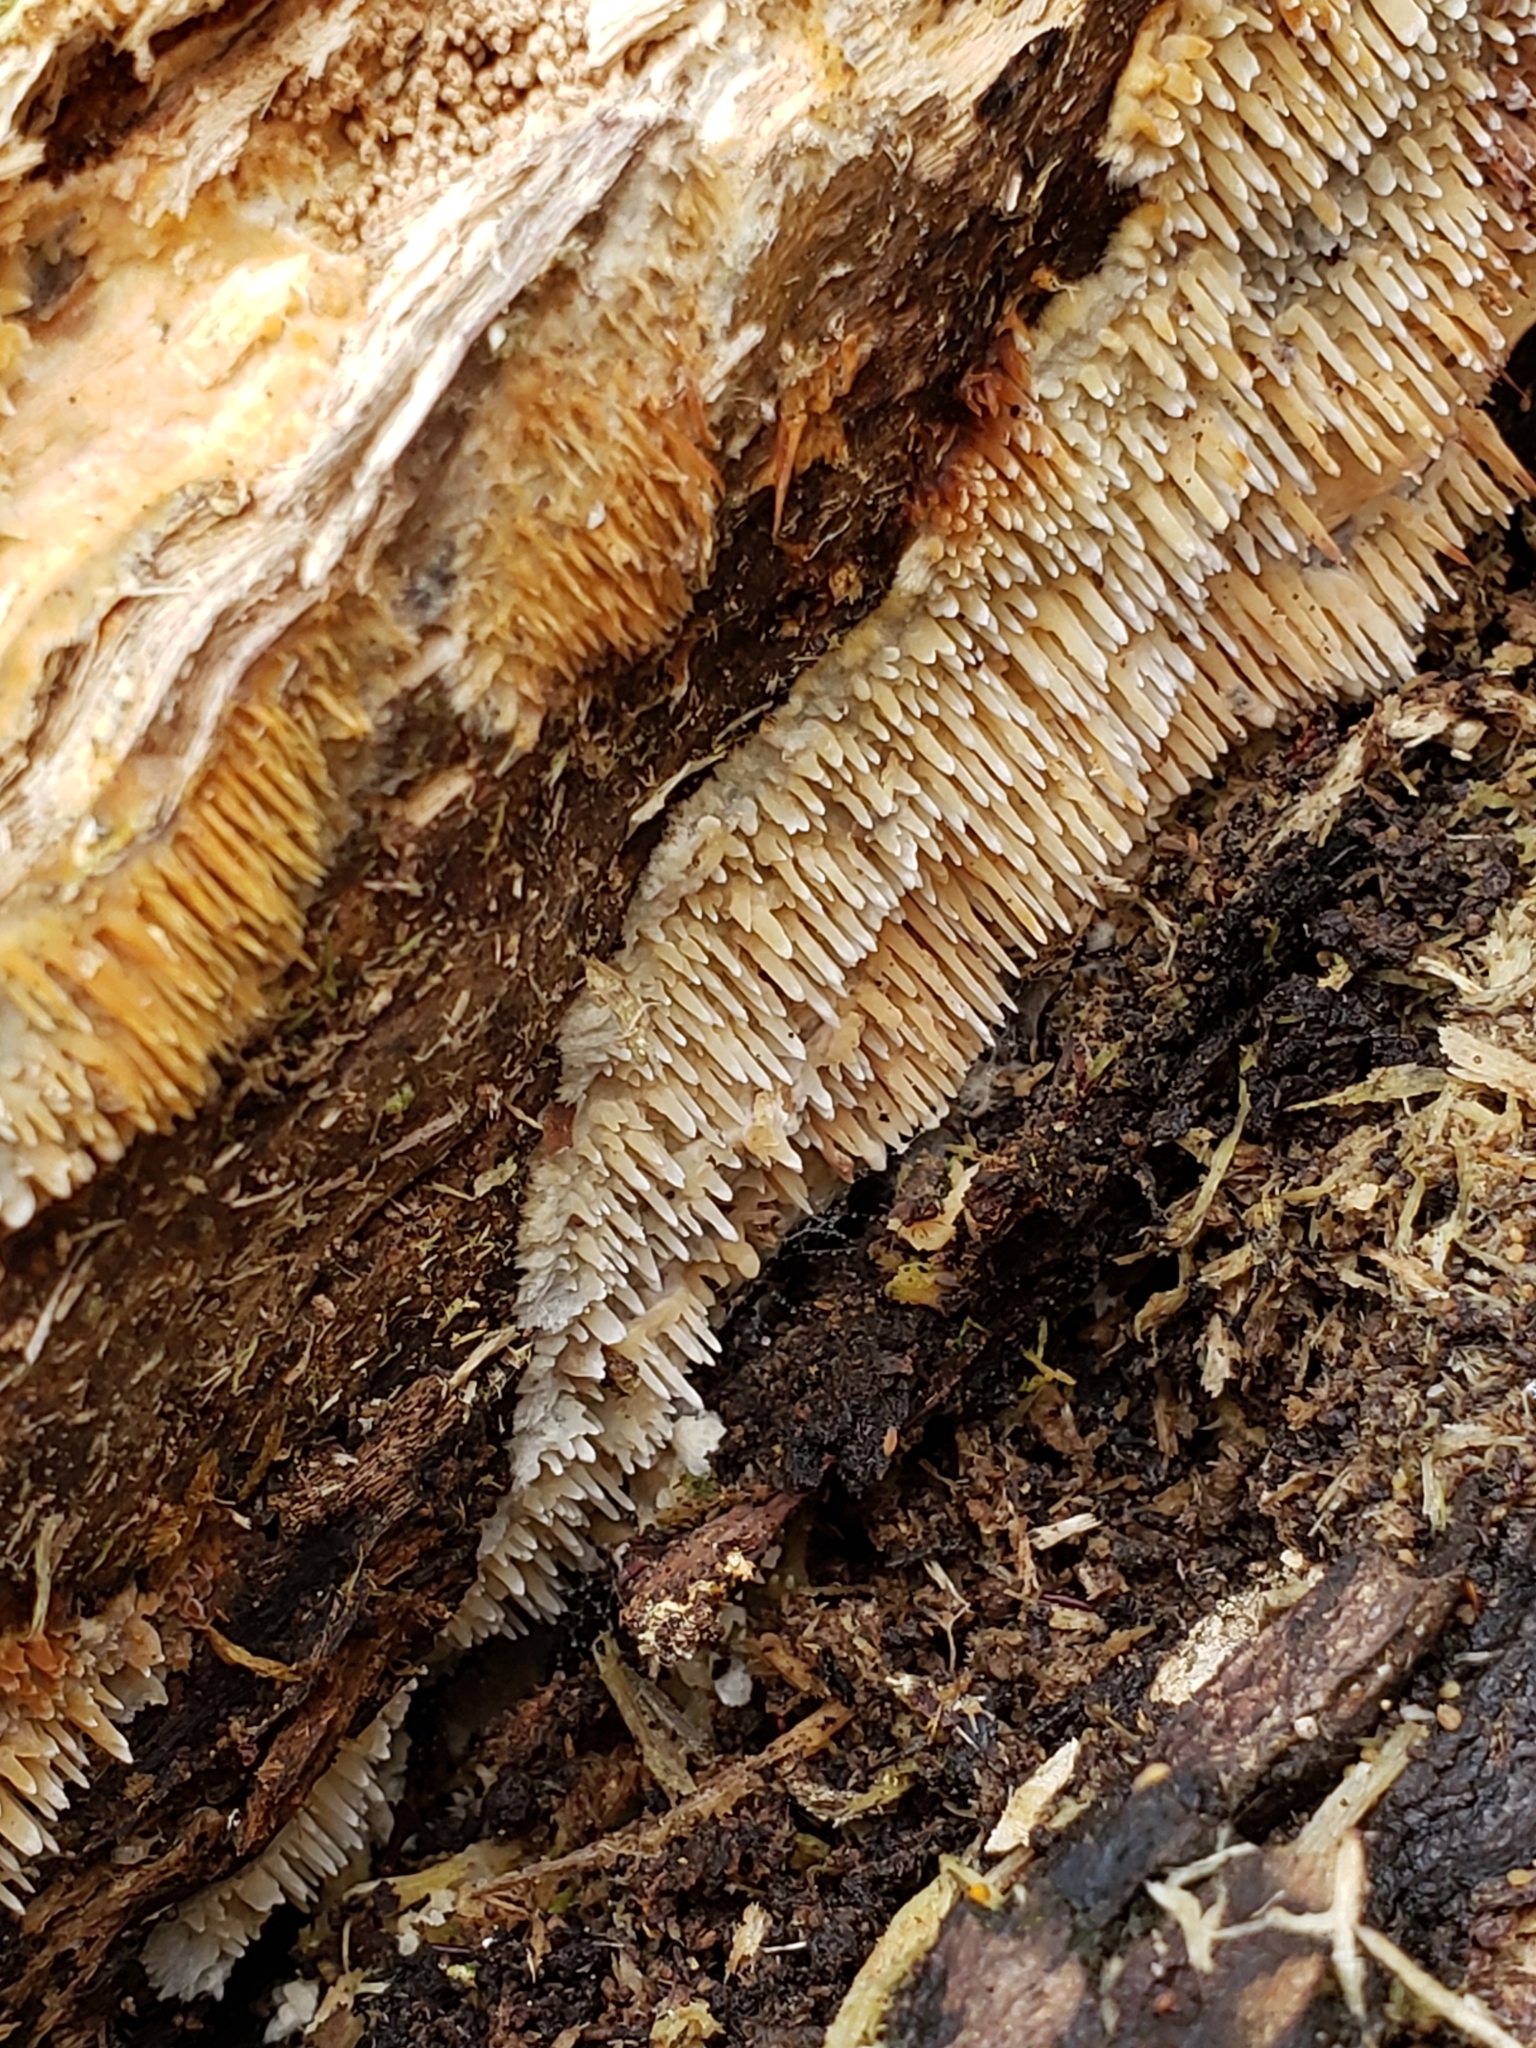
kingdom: Fungi
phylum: Basidiomycota
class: Agaricomycetes
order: Agaricales
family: Radulomycetaceae
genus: Radulomyces
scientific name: Radulomyces copelandii
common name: Asian beauty
